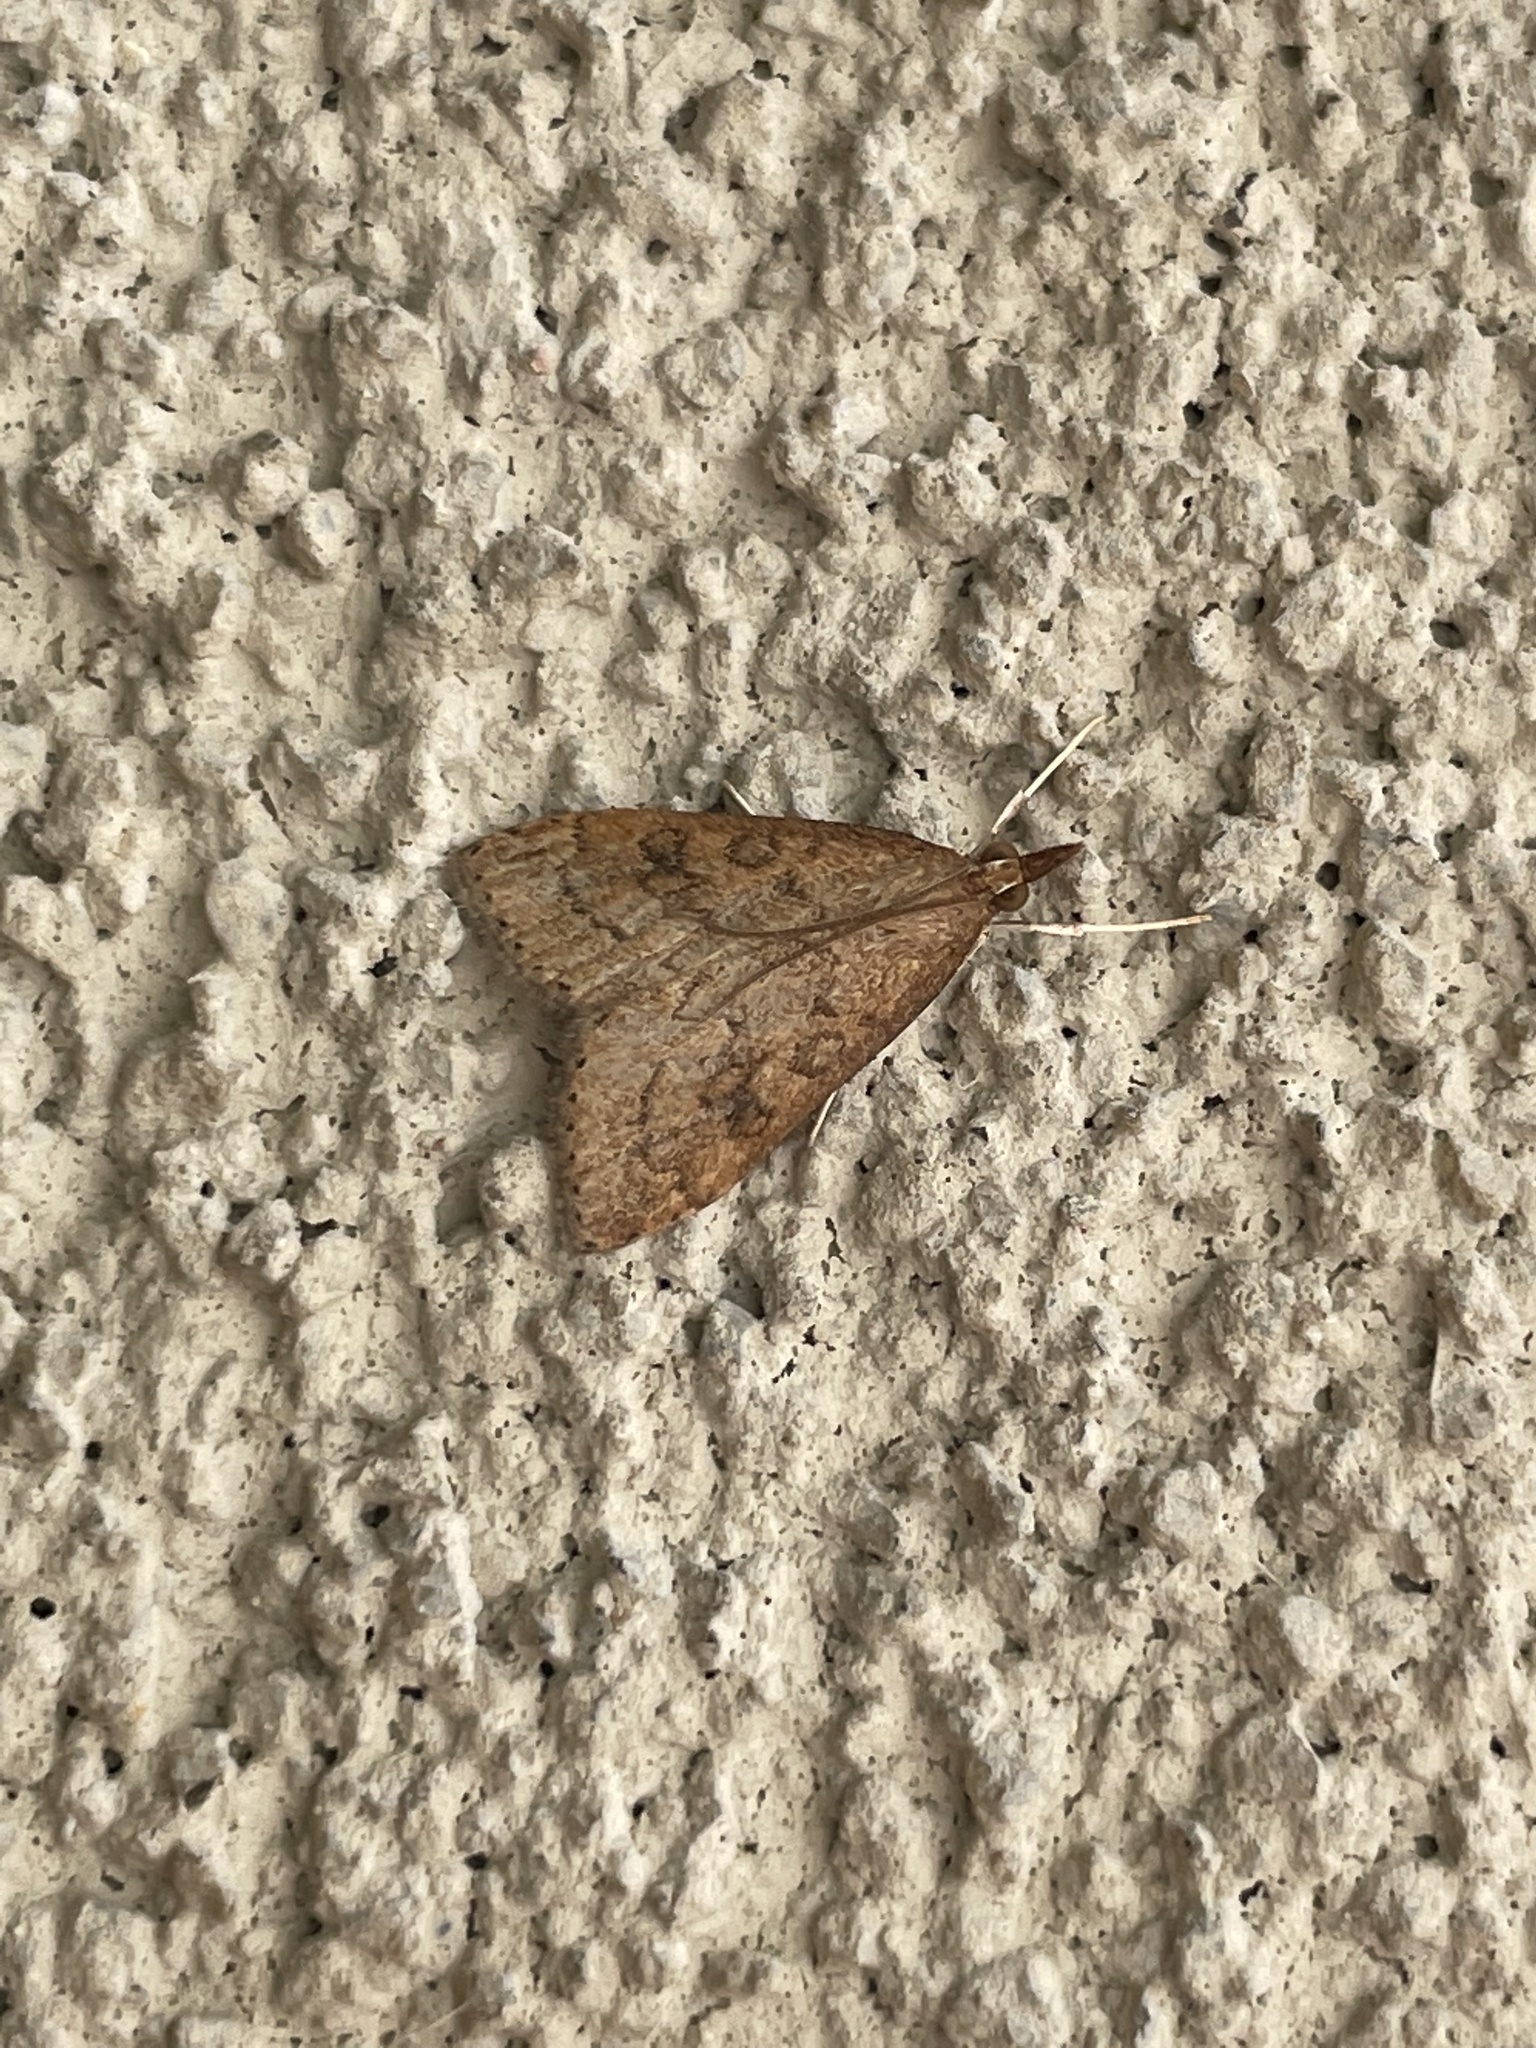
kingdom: Animalia
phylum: Arthropoda
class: Insecta
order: Lepidoptera
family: Crambidae
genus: Udea
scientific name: Udea rubigalis
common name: Celery leaftier moth
